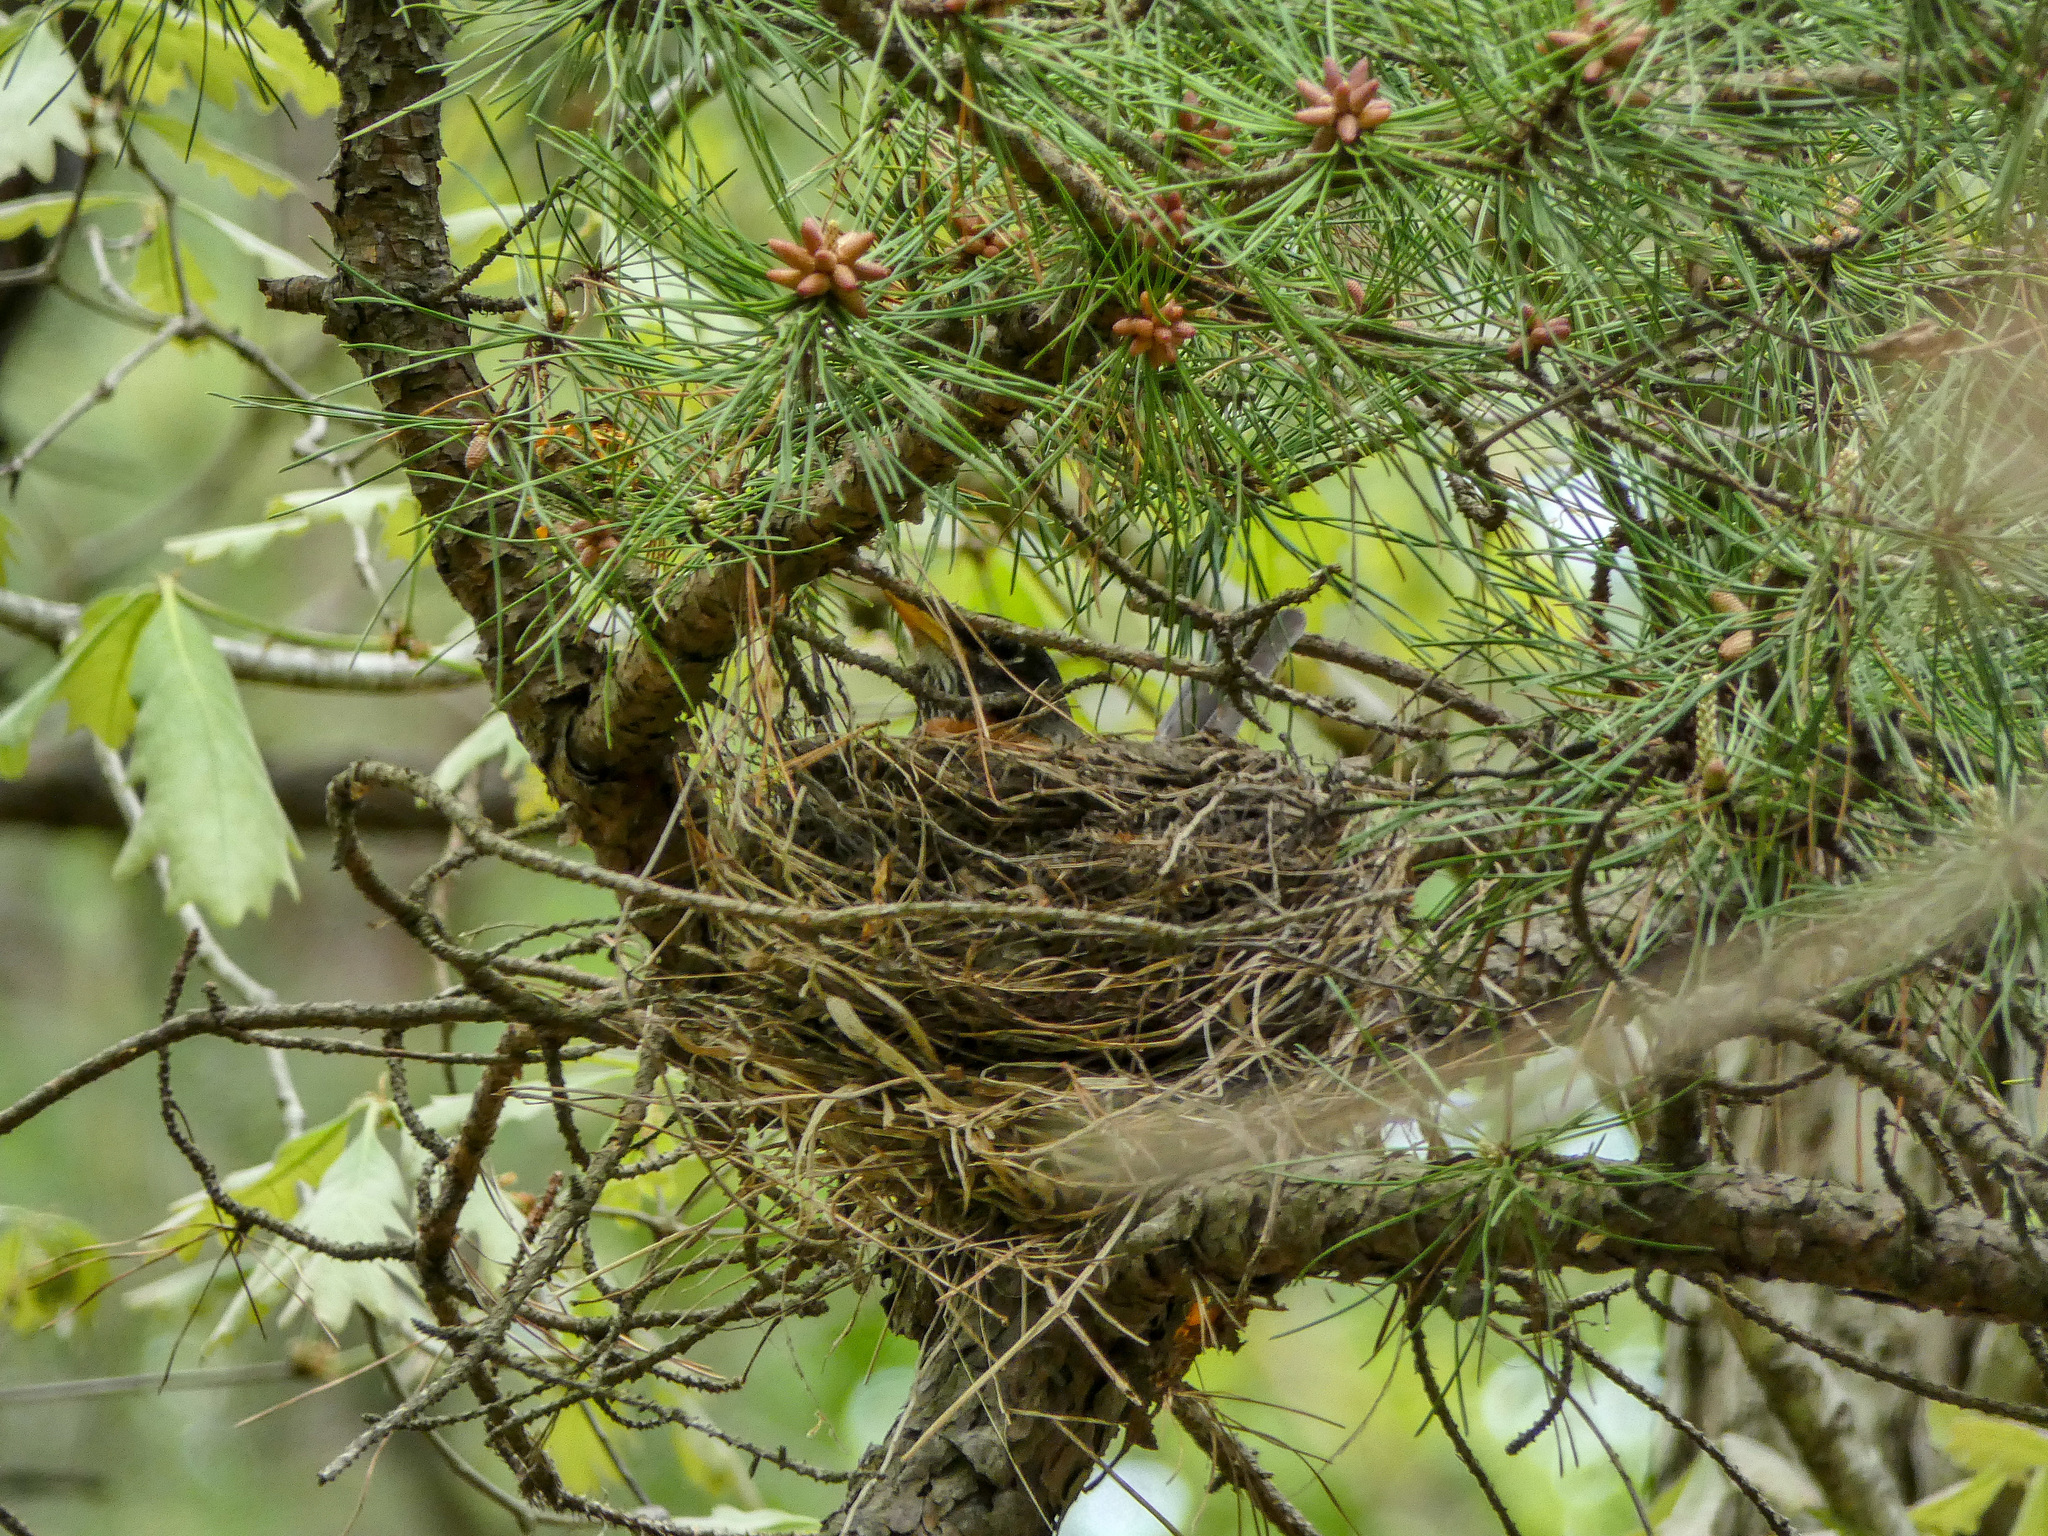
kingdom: Animalia
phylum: Chordata
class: Aves
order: Passeriformes
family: Turdidae
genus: Turdus
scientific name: Turdus migratorius
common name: American robin
